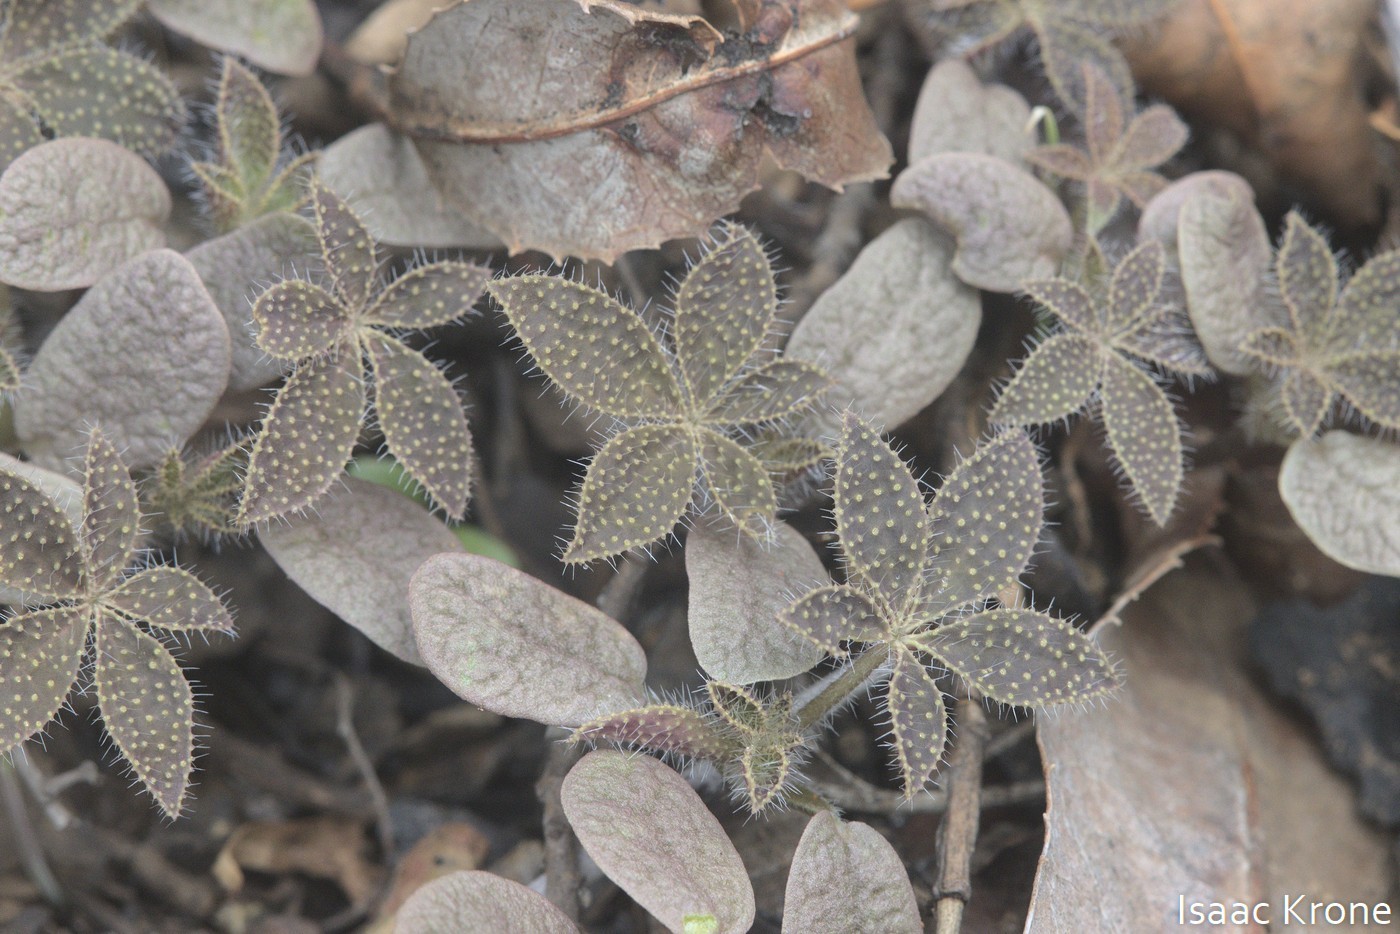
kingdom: Plantae
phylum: Tracheophyta
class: Magnoliopsida
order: Fabales
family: Fabaceae
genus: Lupinus
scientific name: Lupinus hirsutissimus
